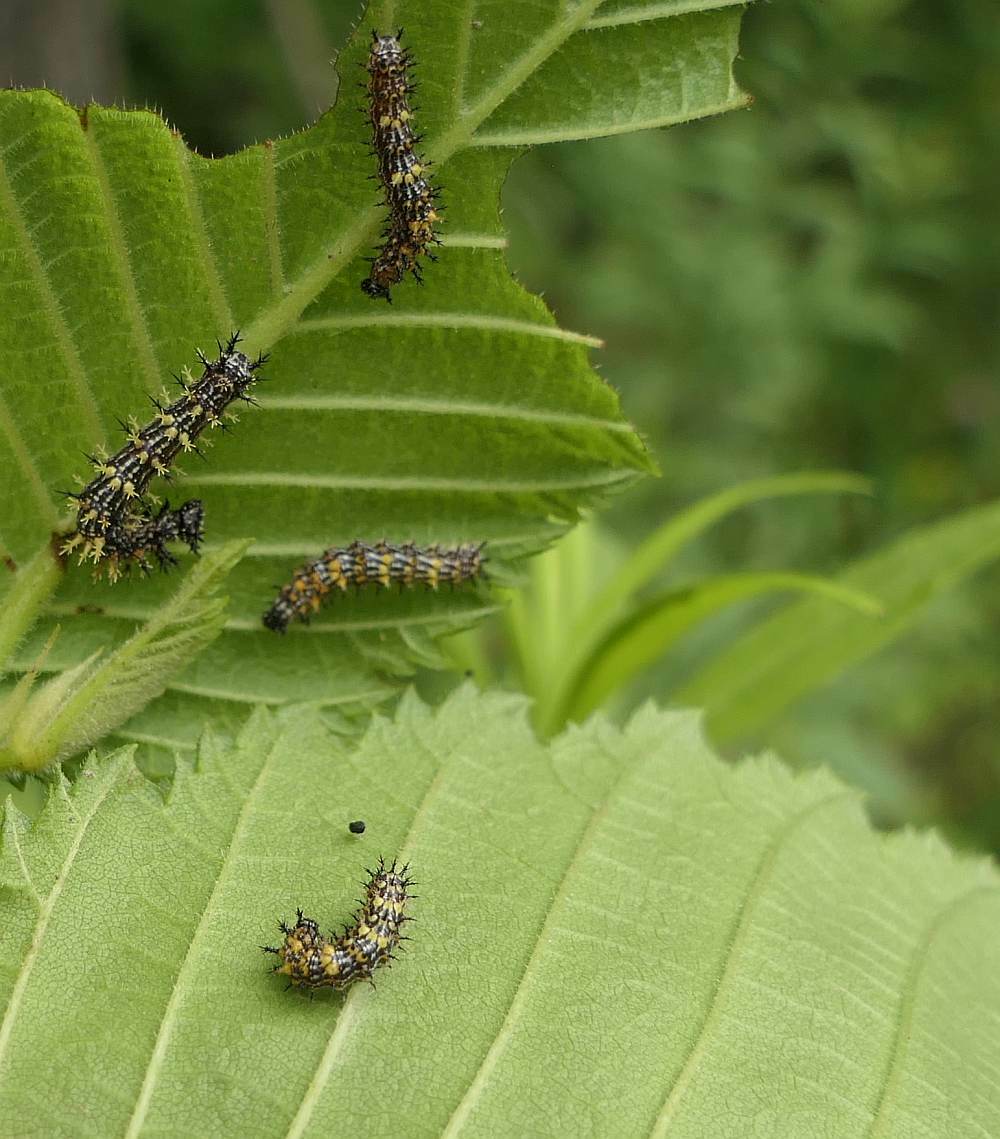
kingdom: Animalia
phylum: Arthropoda
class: Insecta
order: Lepidoptera
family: Nymphalidae
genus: Polygonia
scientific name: Polygonia interrogationis
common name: Question mark
